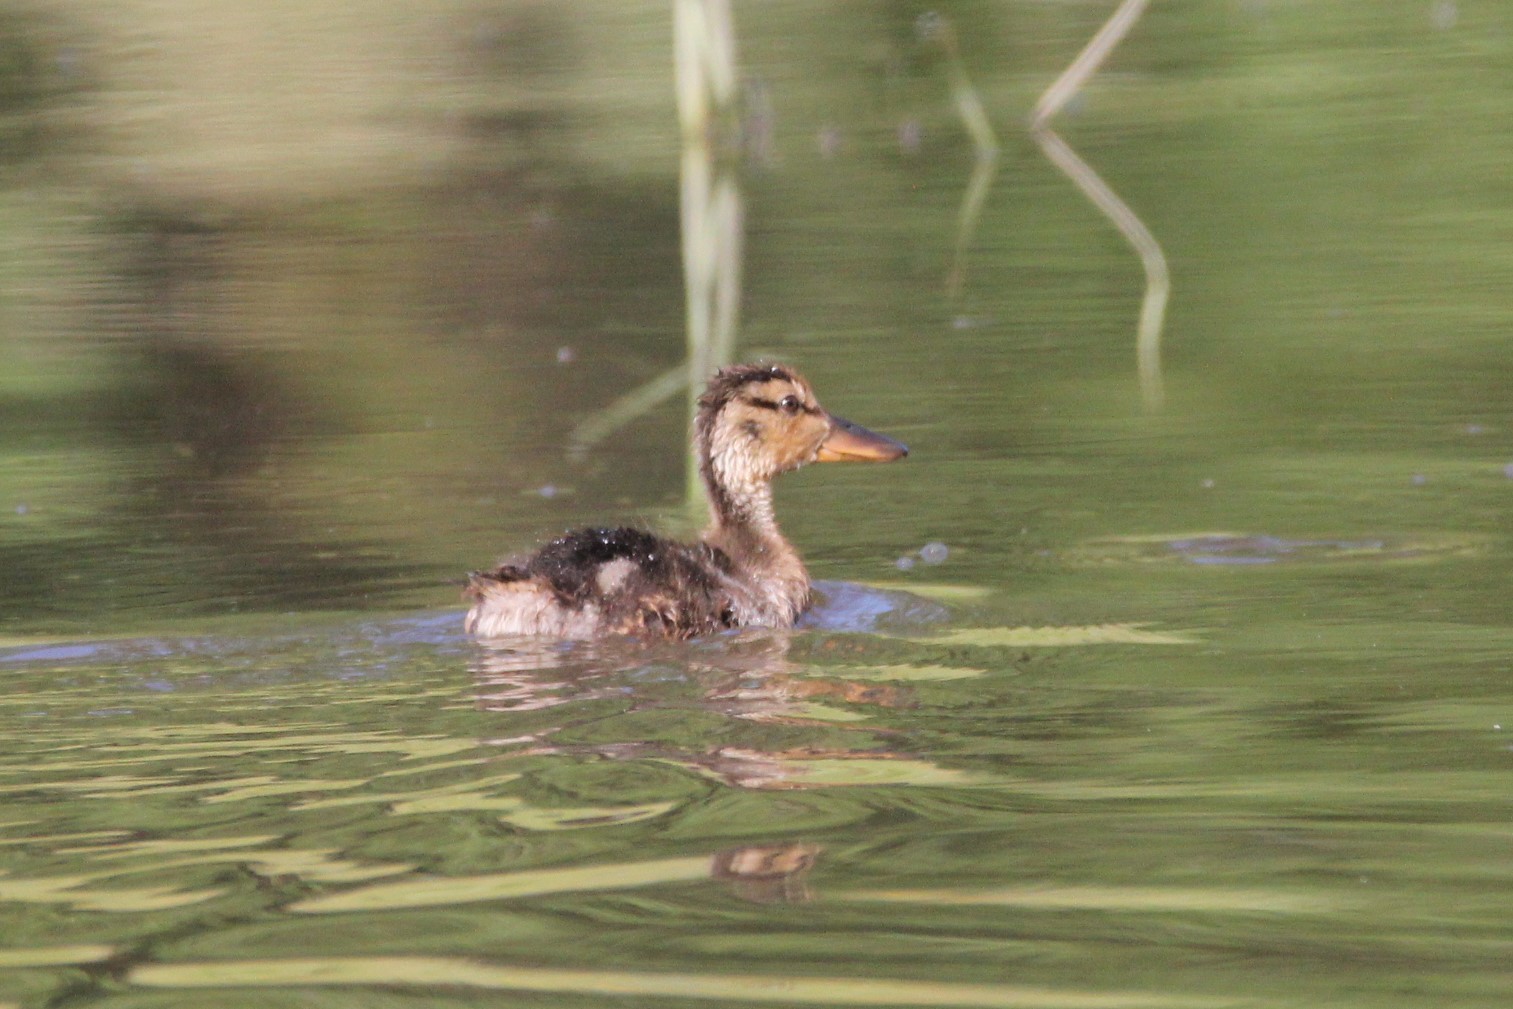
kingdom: Animalia
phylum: Chordata
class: Aves
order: Anseriformes
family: Anatidae
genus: Anas
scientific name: Anas platyrhynchos
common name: Mallard
